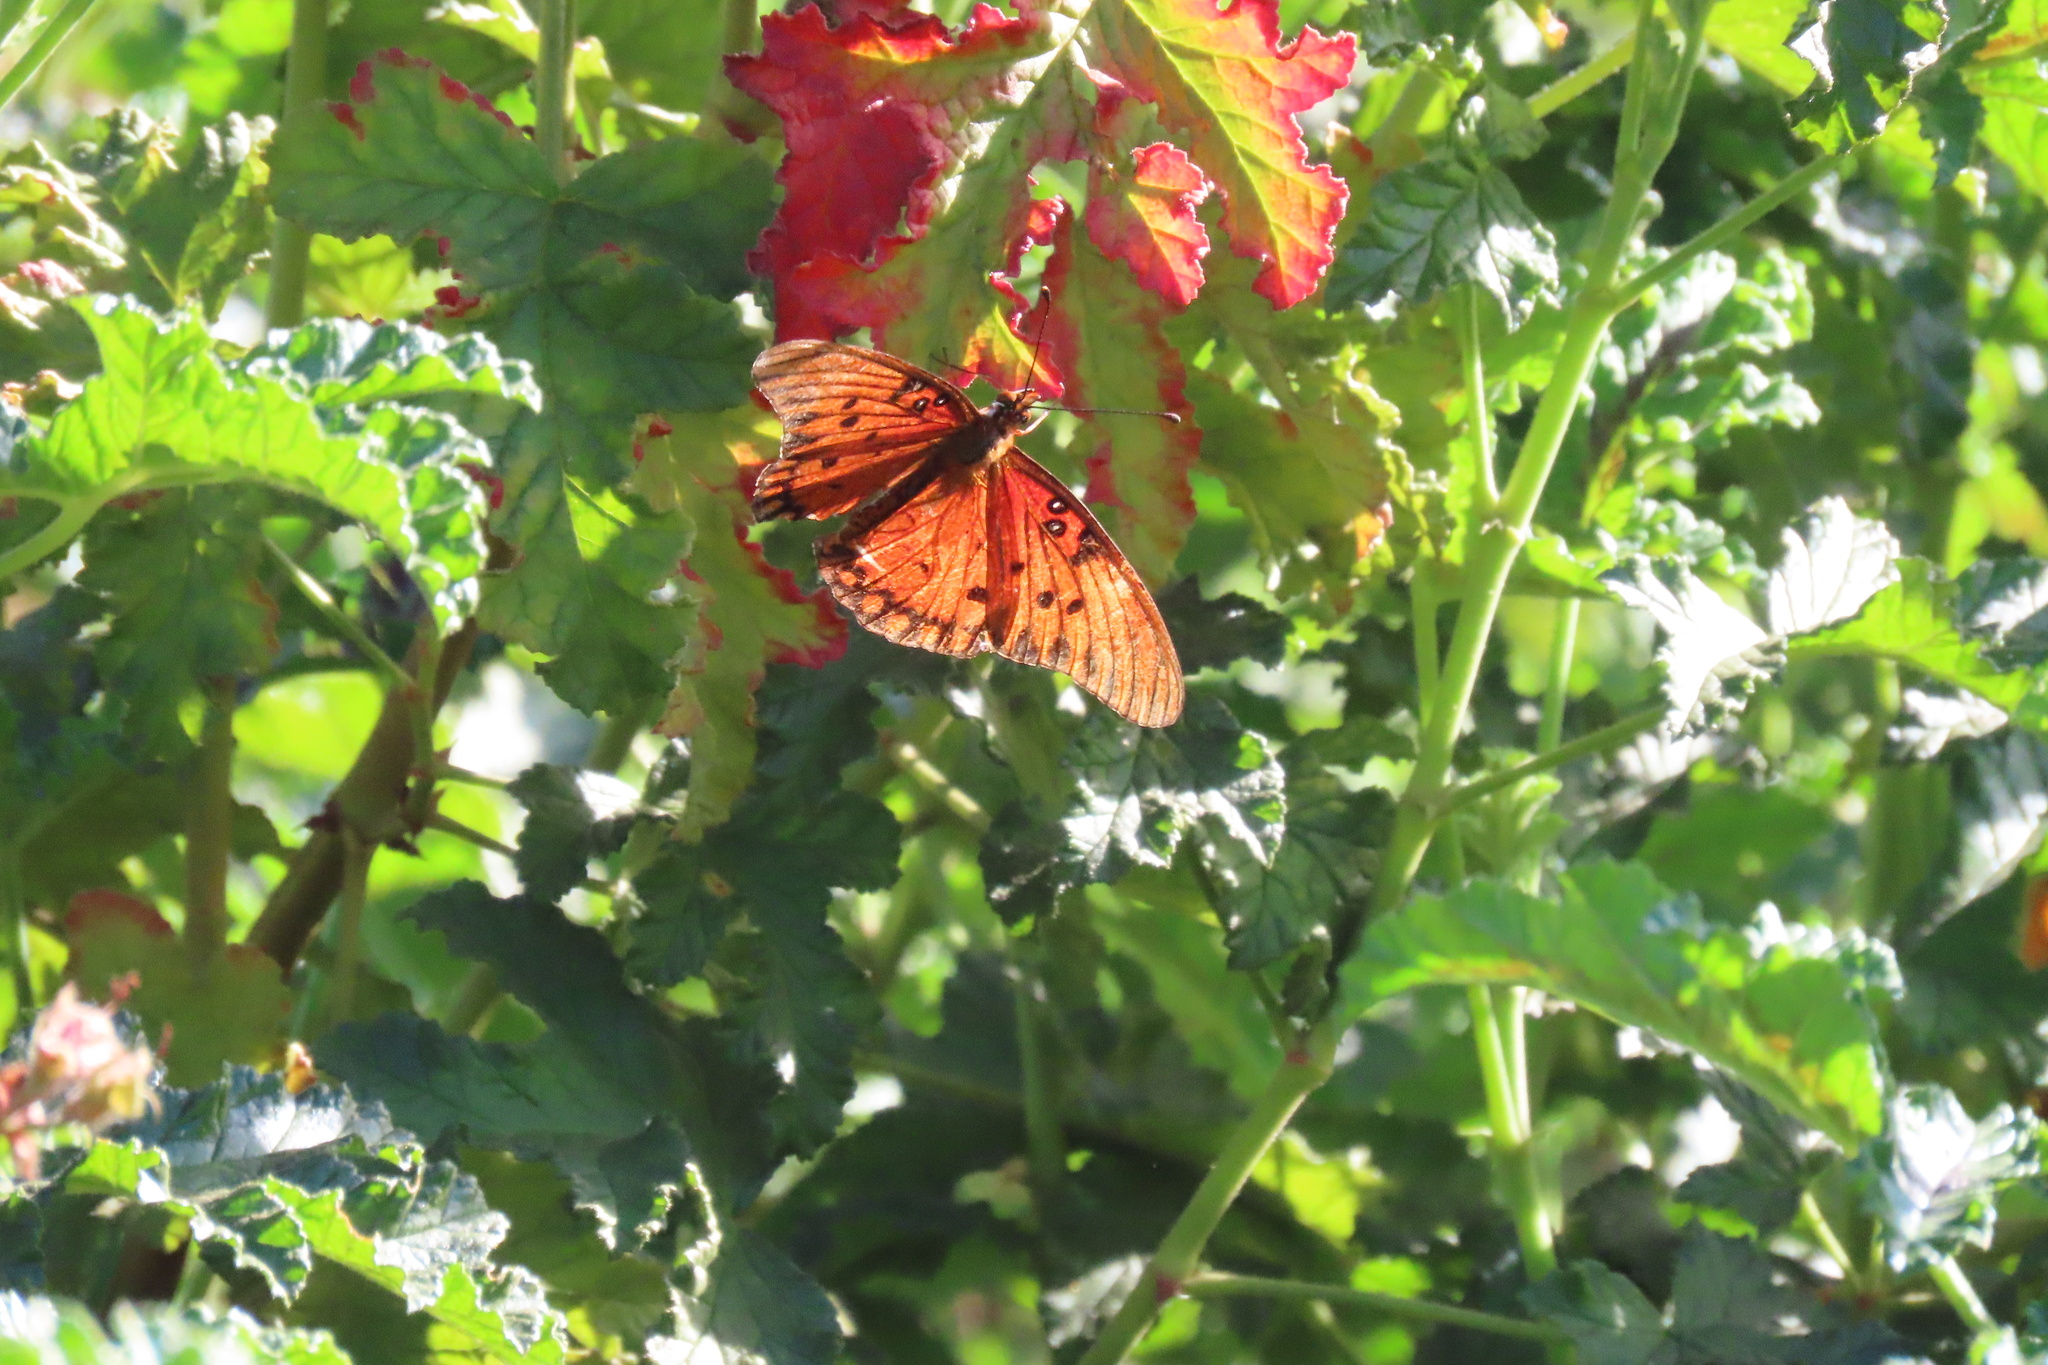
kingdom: Animalia
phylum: Arthropoda
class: Insecta
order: Lepidoptera
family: Nymphalidae
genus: Dione
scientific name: Dione vanillae
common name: Gulf fritillary
